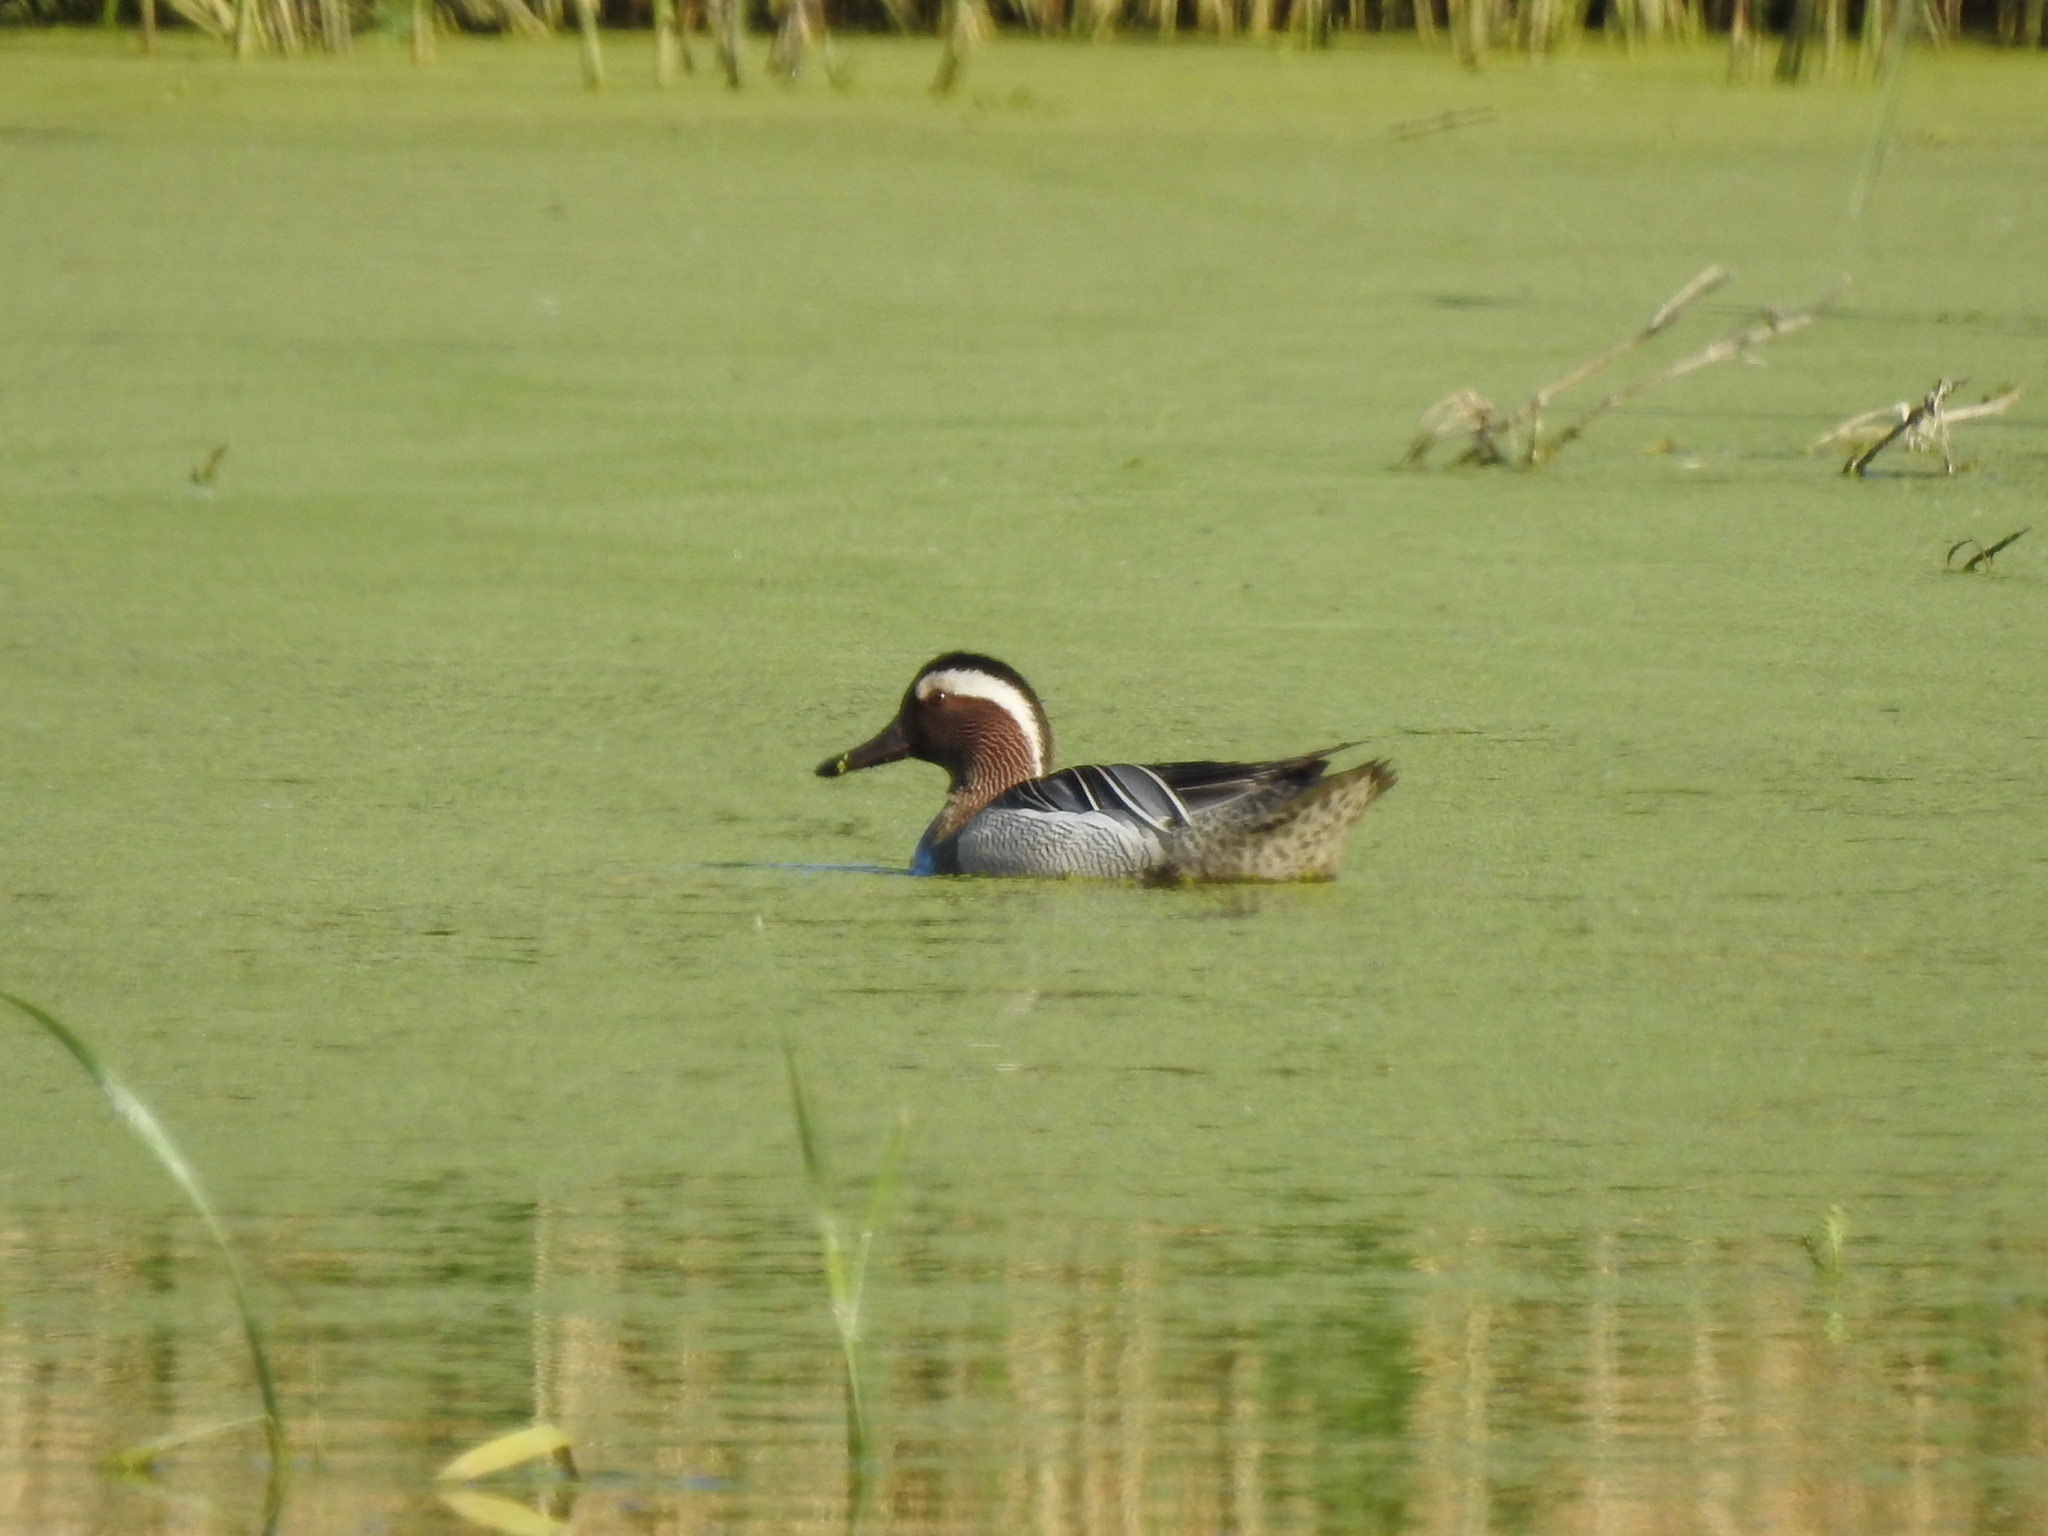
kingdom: Animalia
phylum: Chordata
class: Aves
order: Anseriformes
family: Anatidae
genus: Spatula
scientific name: Spatula querquedula
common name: Garganey
